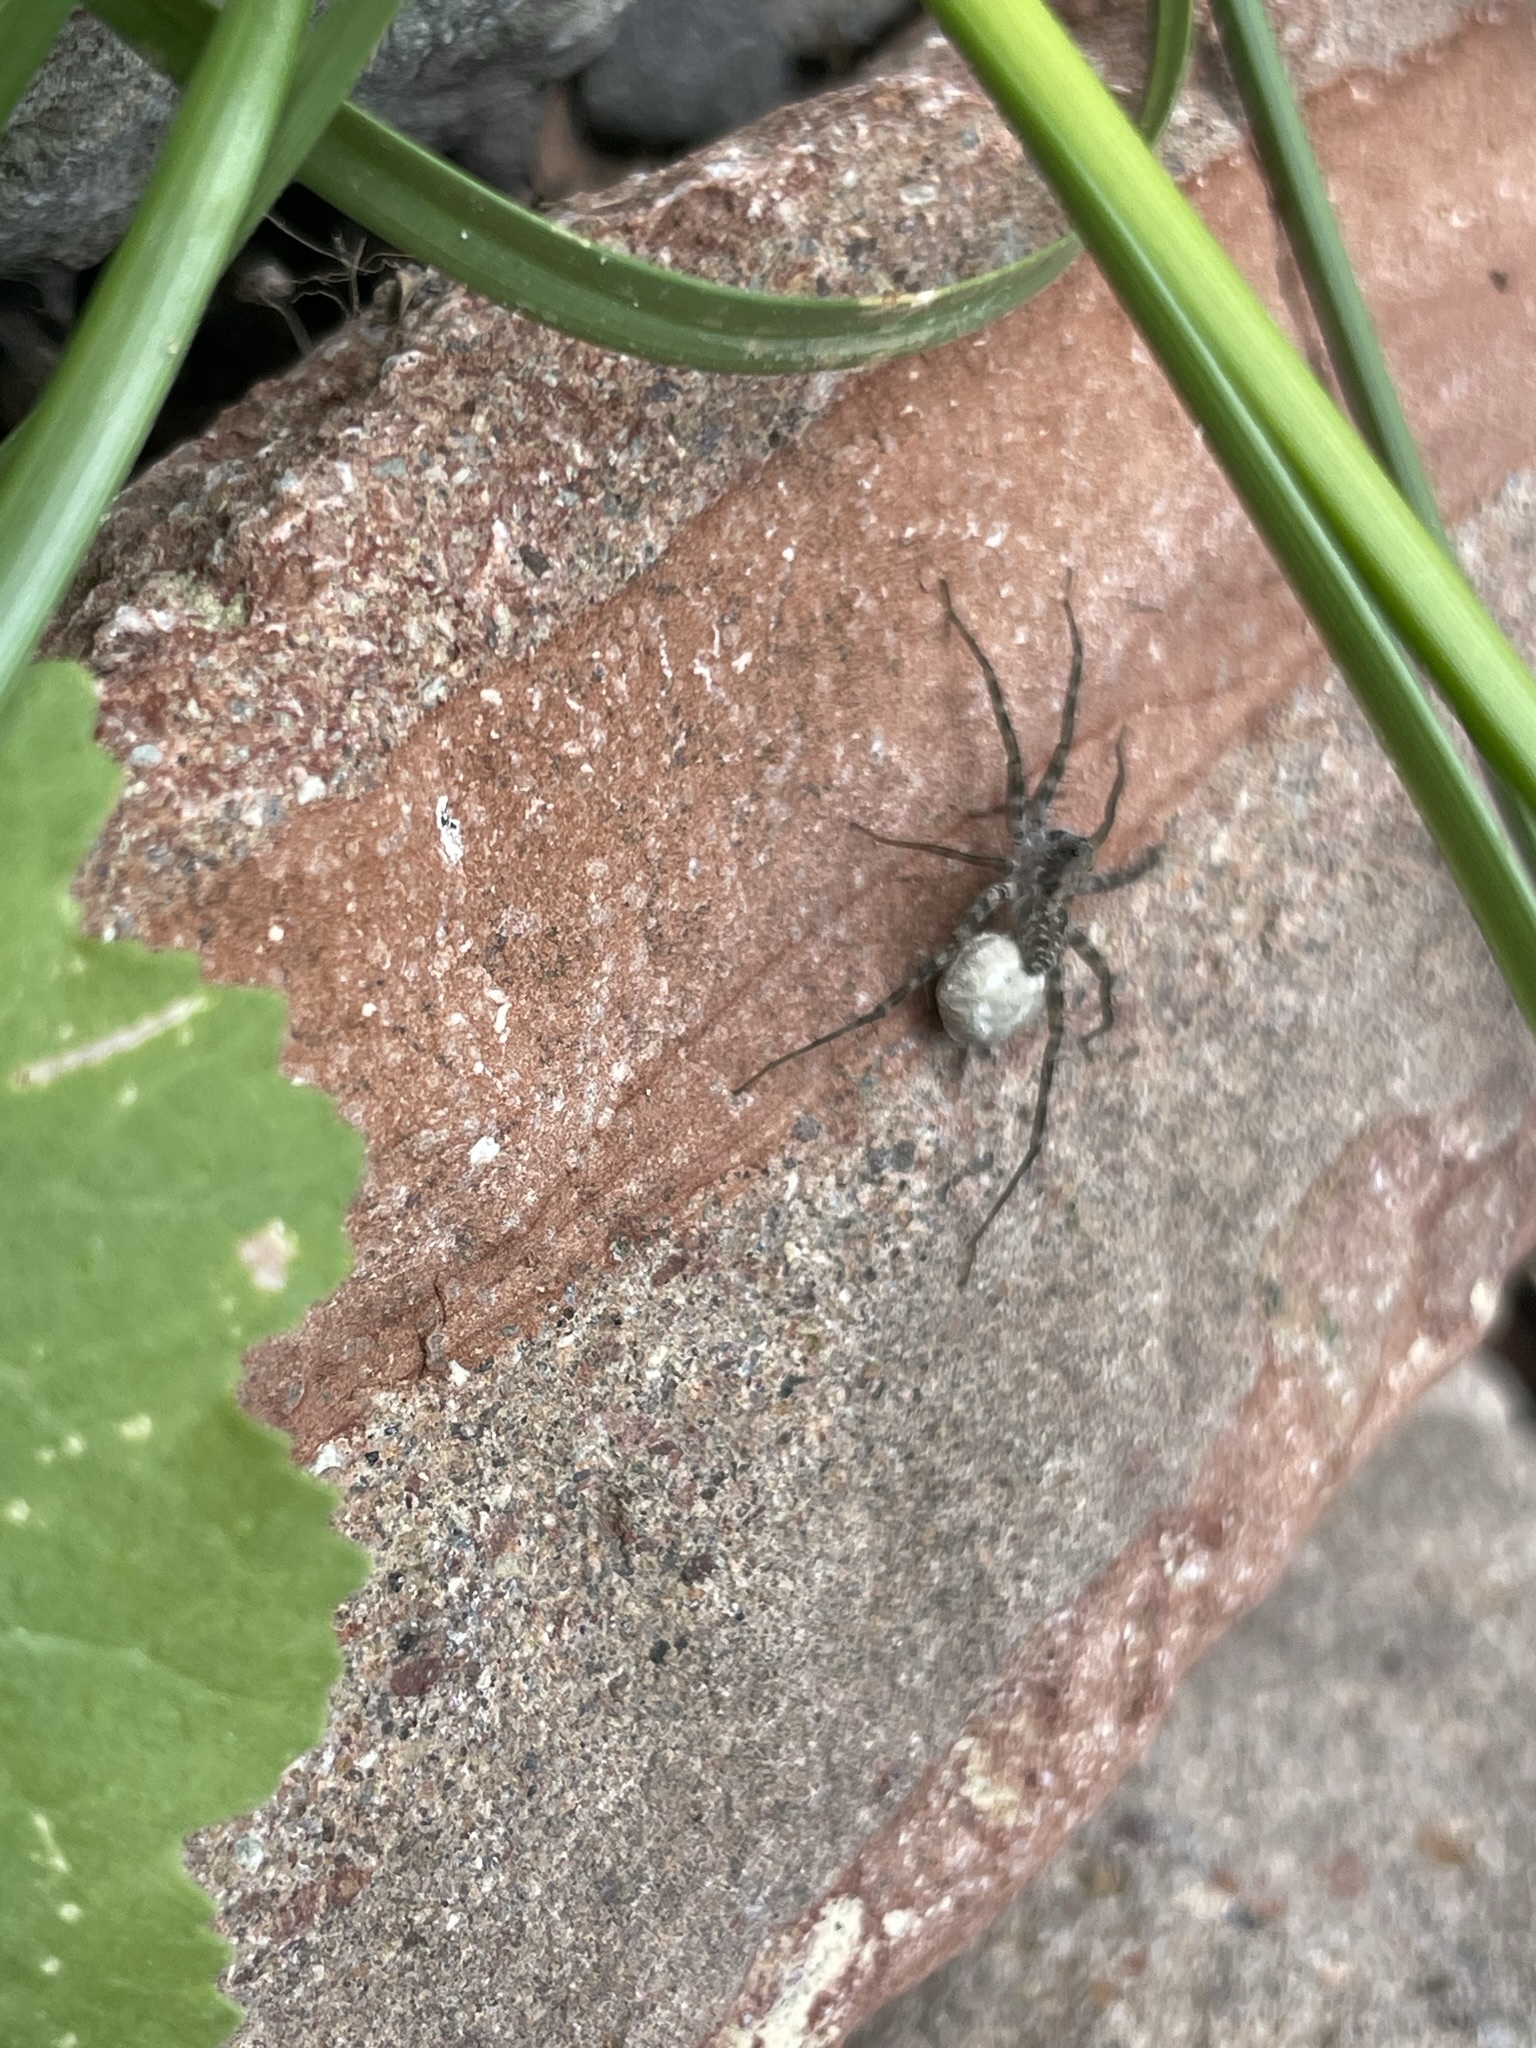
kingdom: Animalia
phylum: Arthropoda
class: Arachnida
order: Araneae
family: Lycosidae
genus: Pardosa
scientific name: Pardosa
